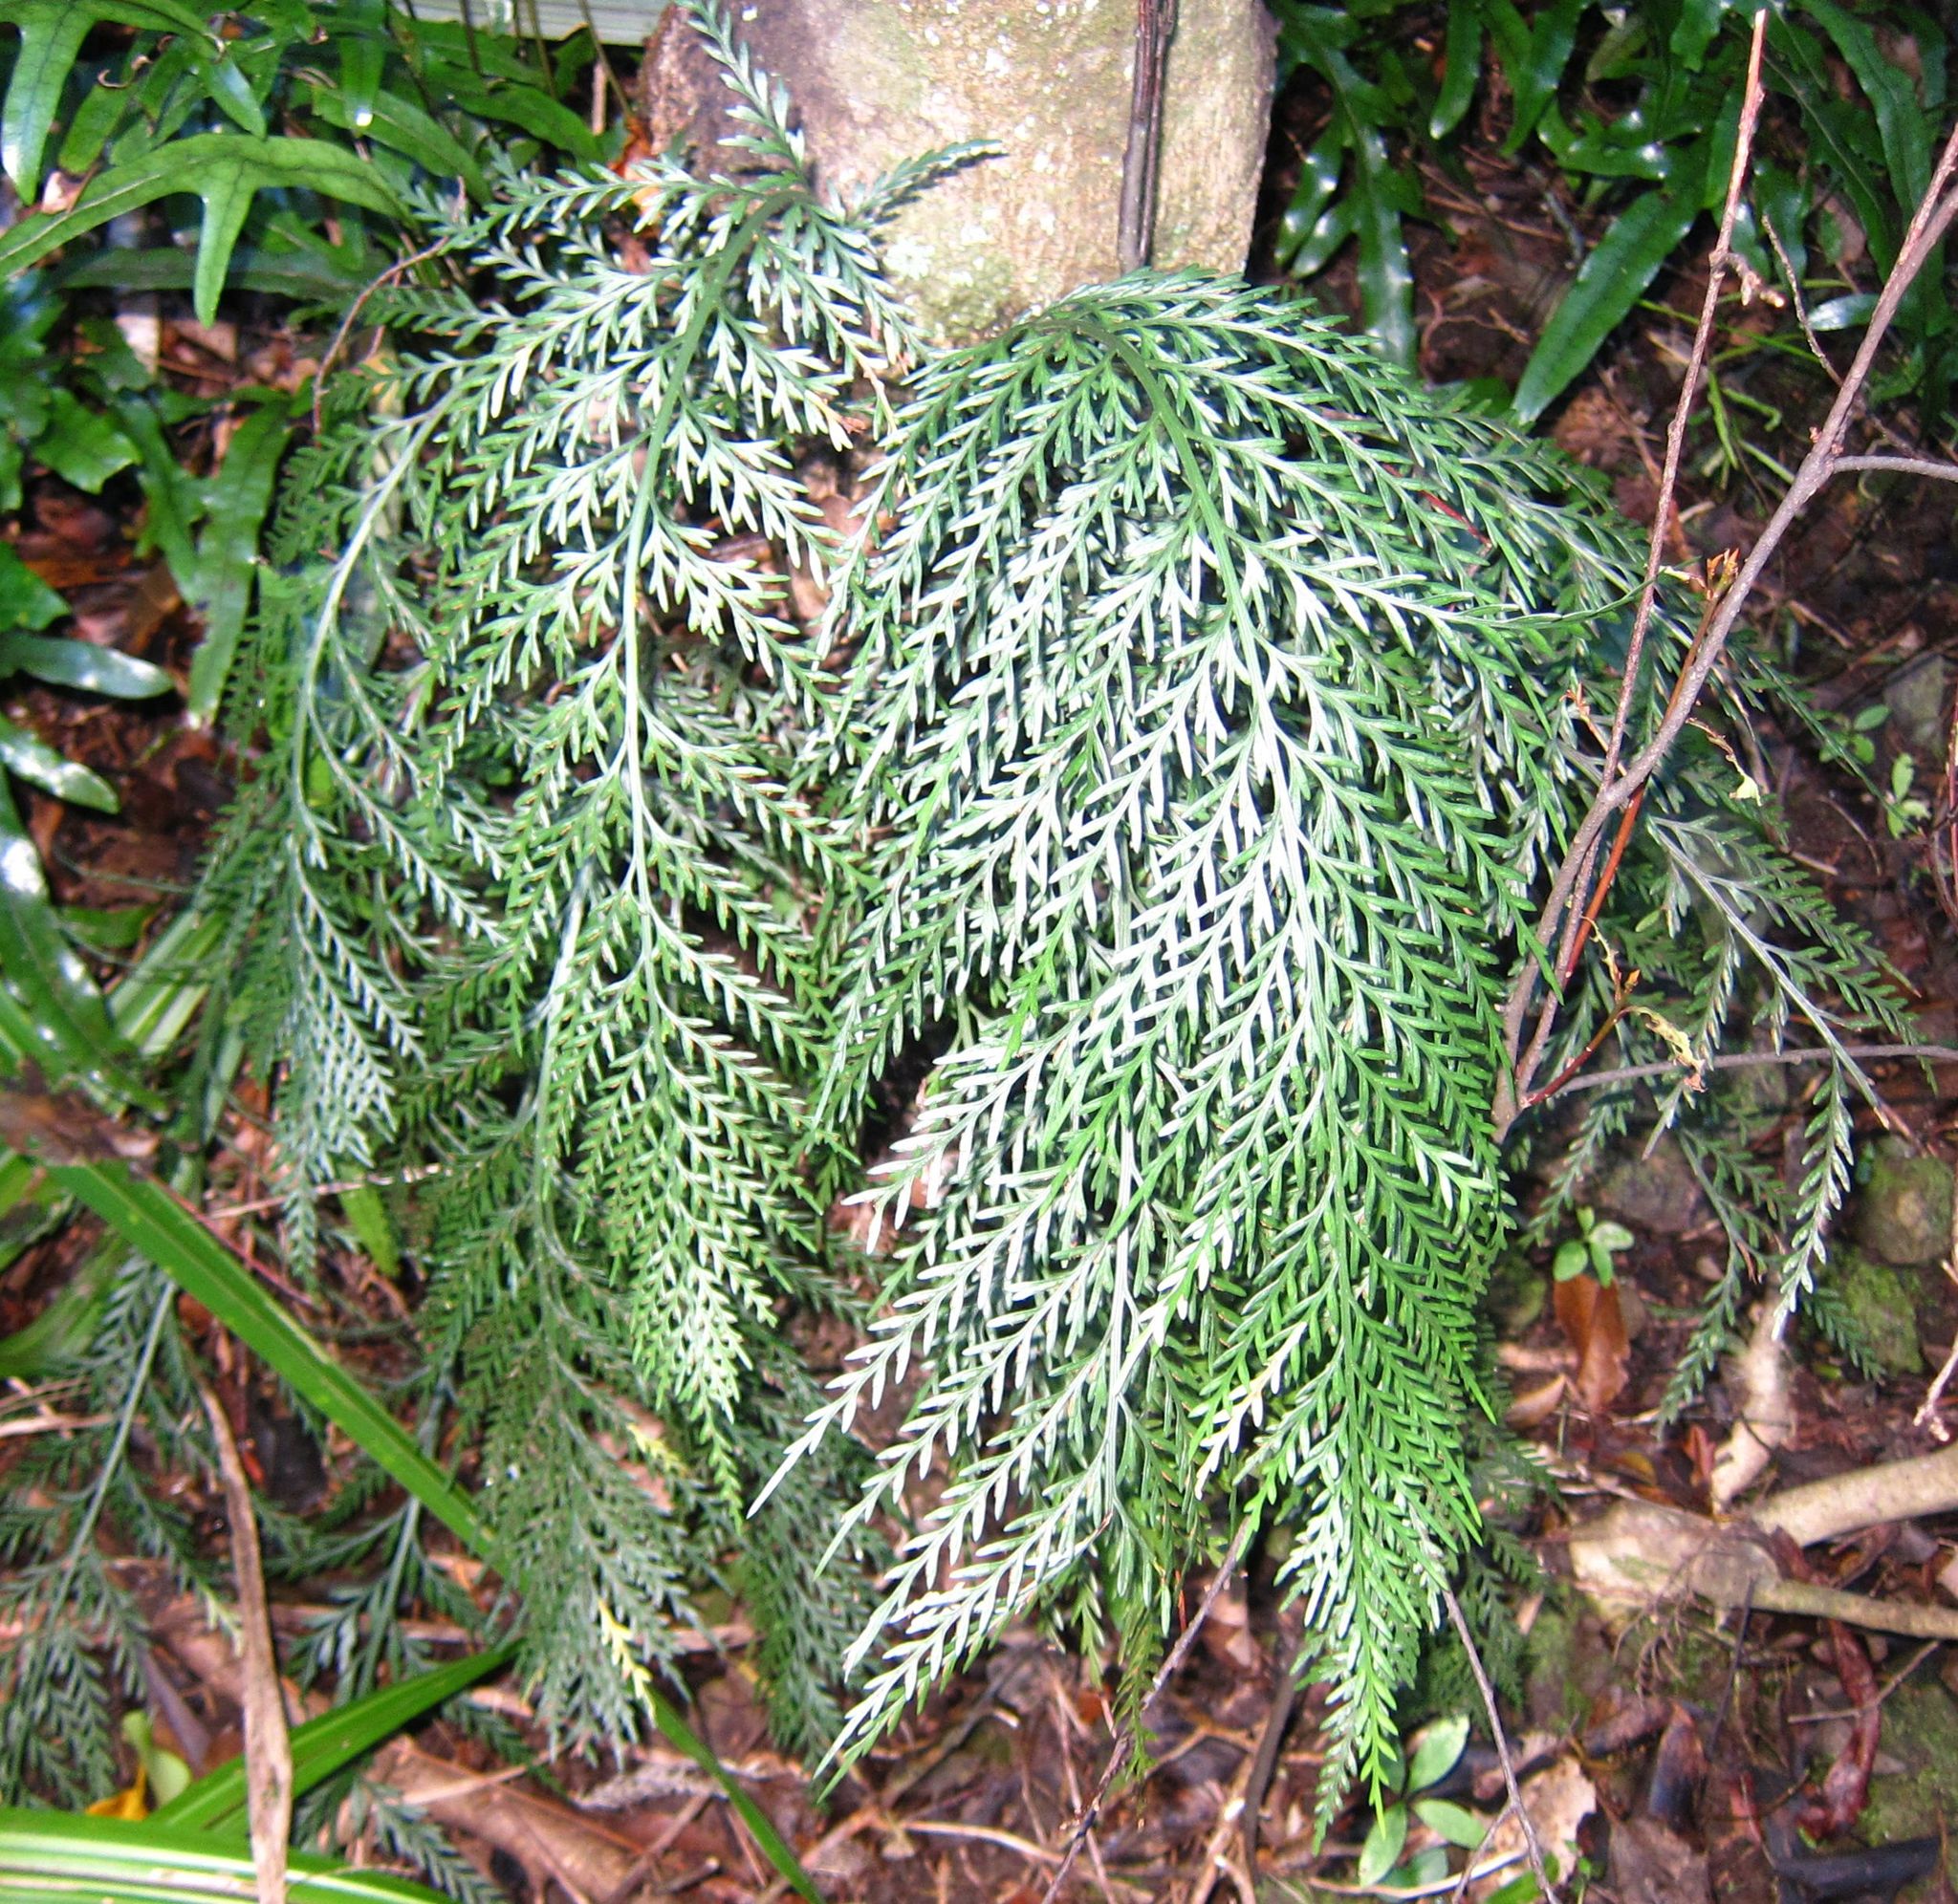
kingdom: Plantae
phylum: Tracheophyta
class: Polypodiopsida
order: Polypodiales
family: Aspleniaceae
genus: Asplenium
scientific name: Asplenium appendiculatum
